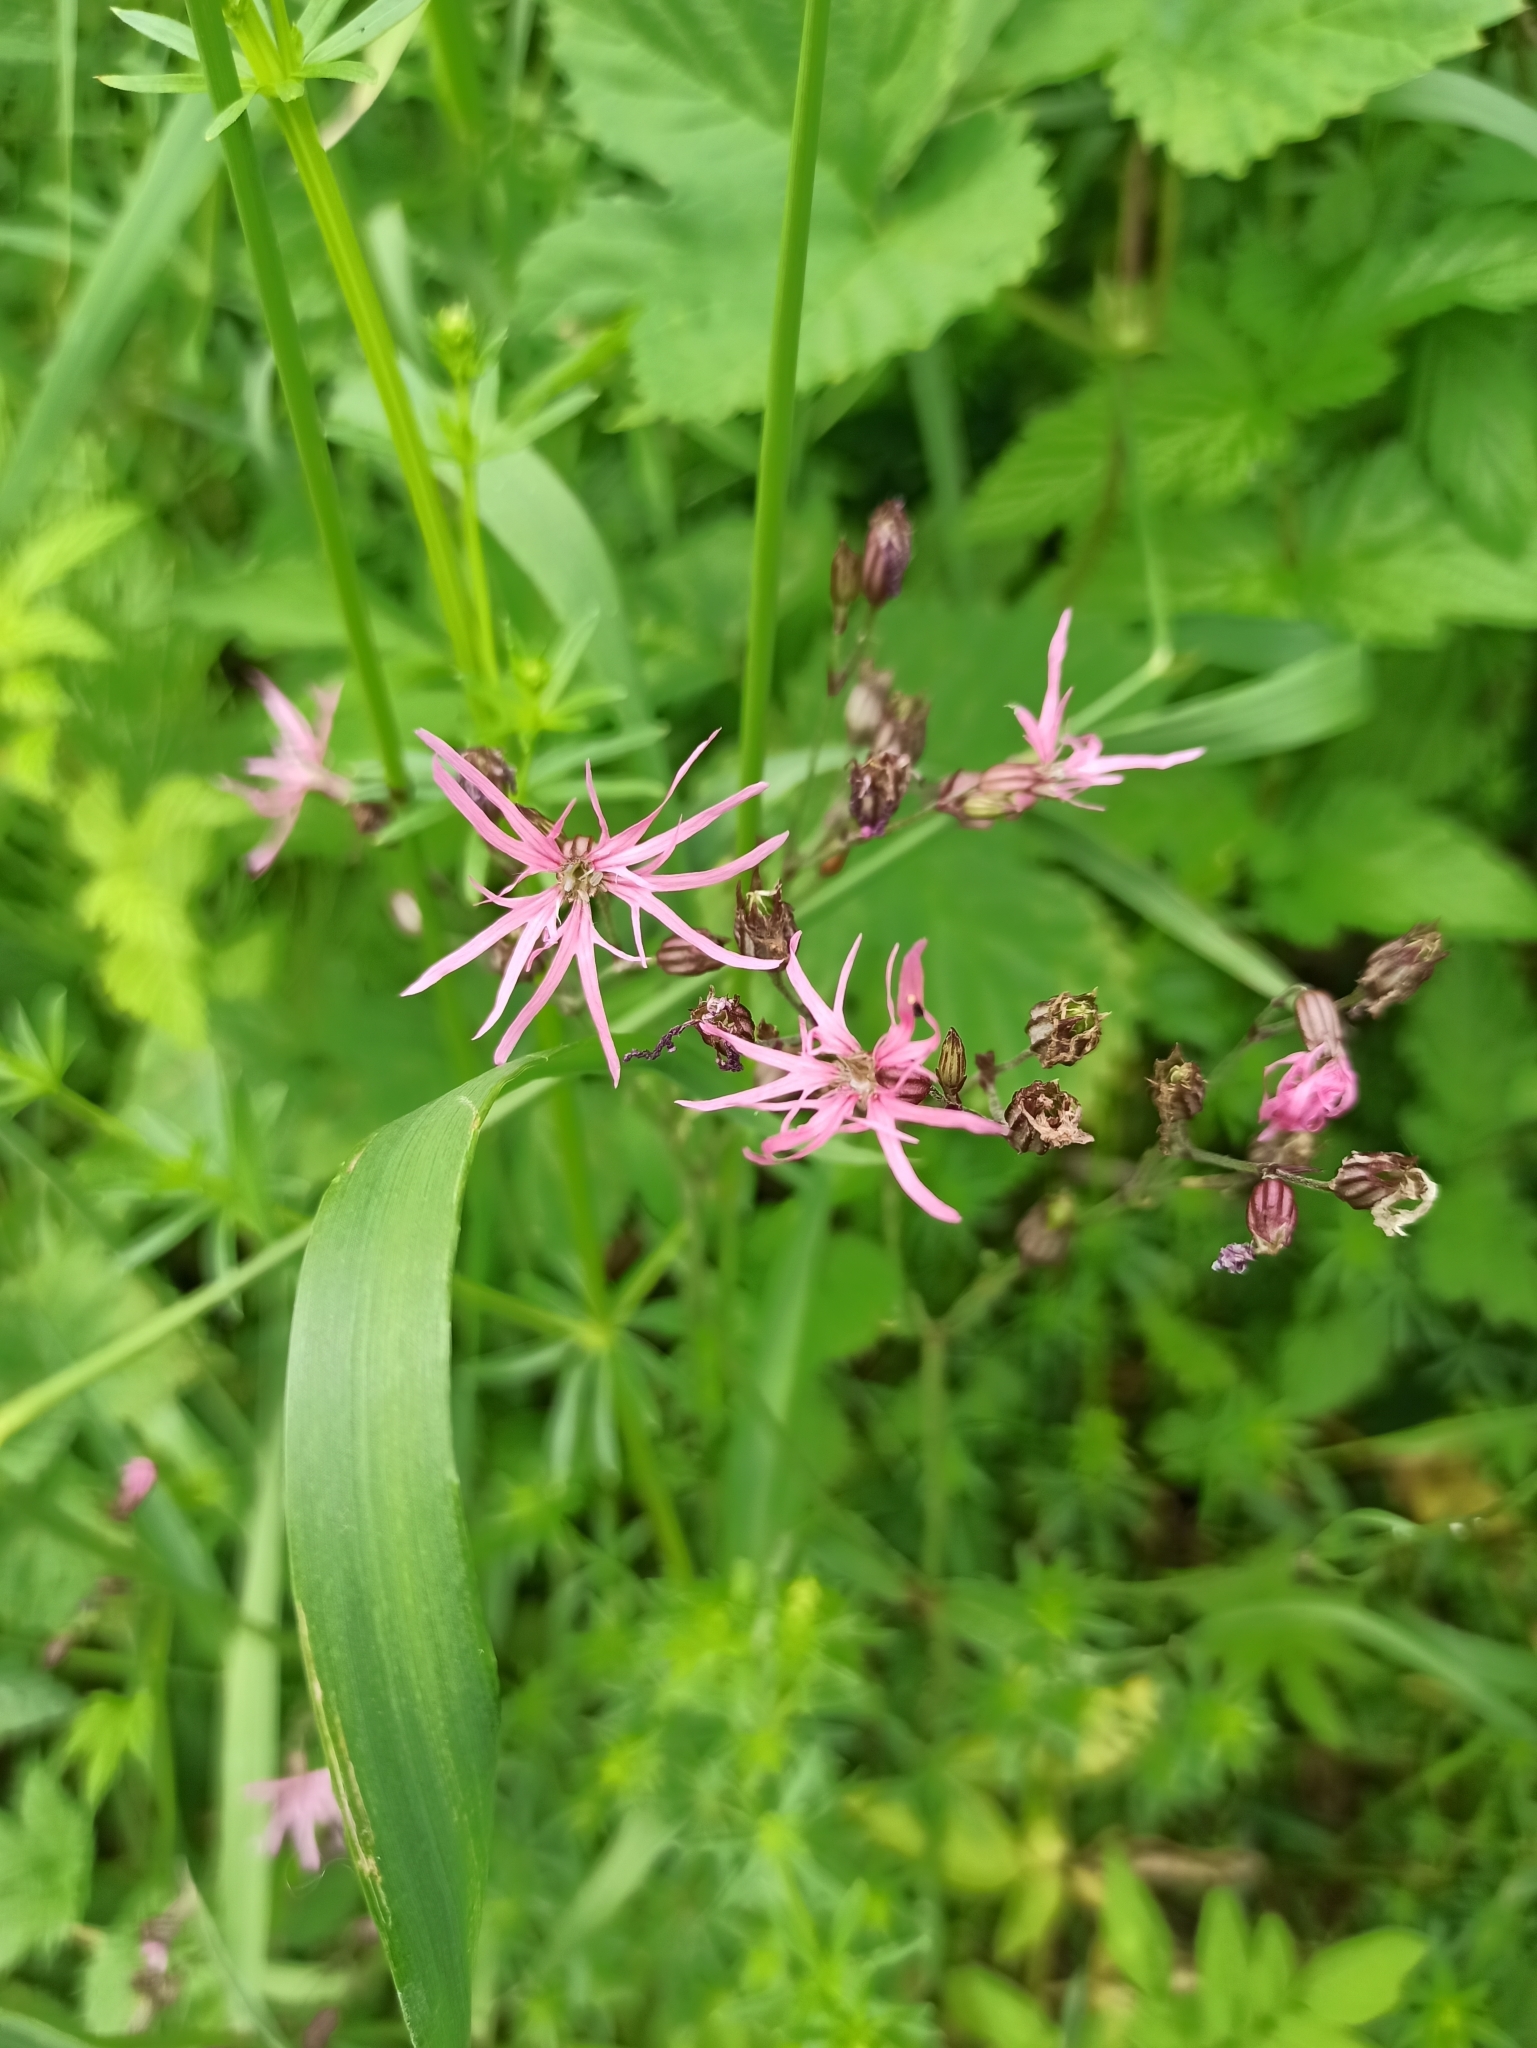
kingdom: Plantae
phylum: Tracheophyta
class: Magnoliopsida
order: Caryophyllales
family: Caryophyllaceae
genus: Silene
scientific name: Silene flos-cuculi
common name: Ragged-robin
